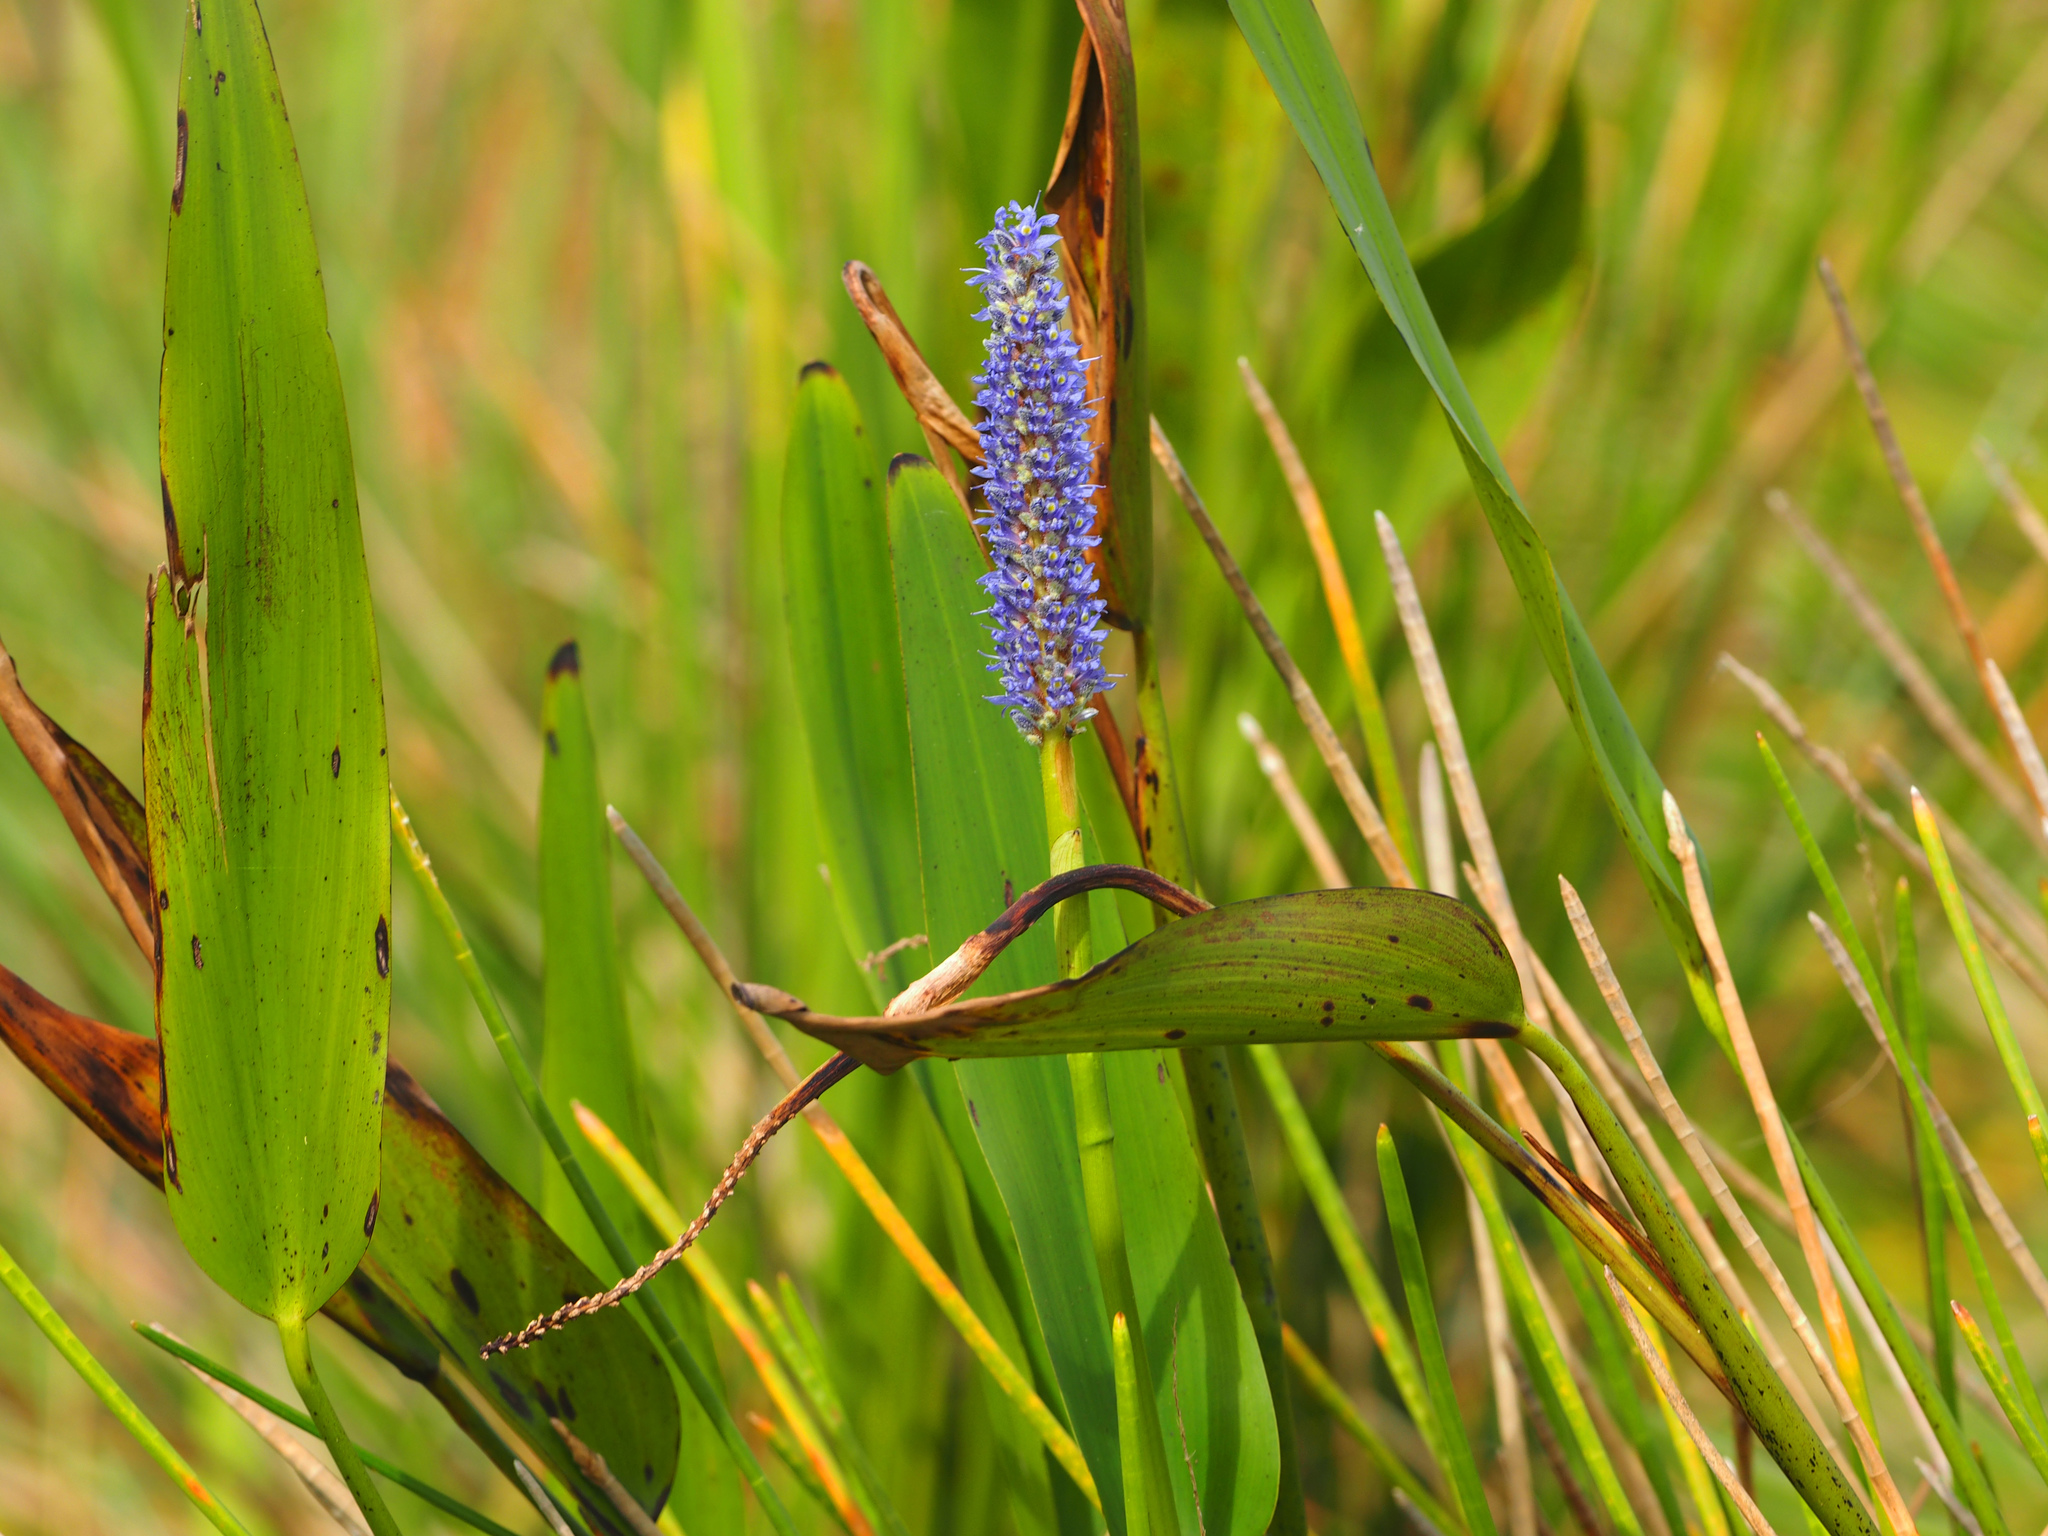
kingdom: Plantae
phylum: Tracheophyta
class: Liliopsida
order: Commelinales
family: Pontederiaceae
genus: Pontederia
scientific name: Pontederia cordata
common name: Pickerelweed
